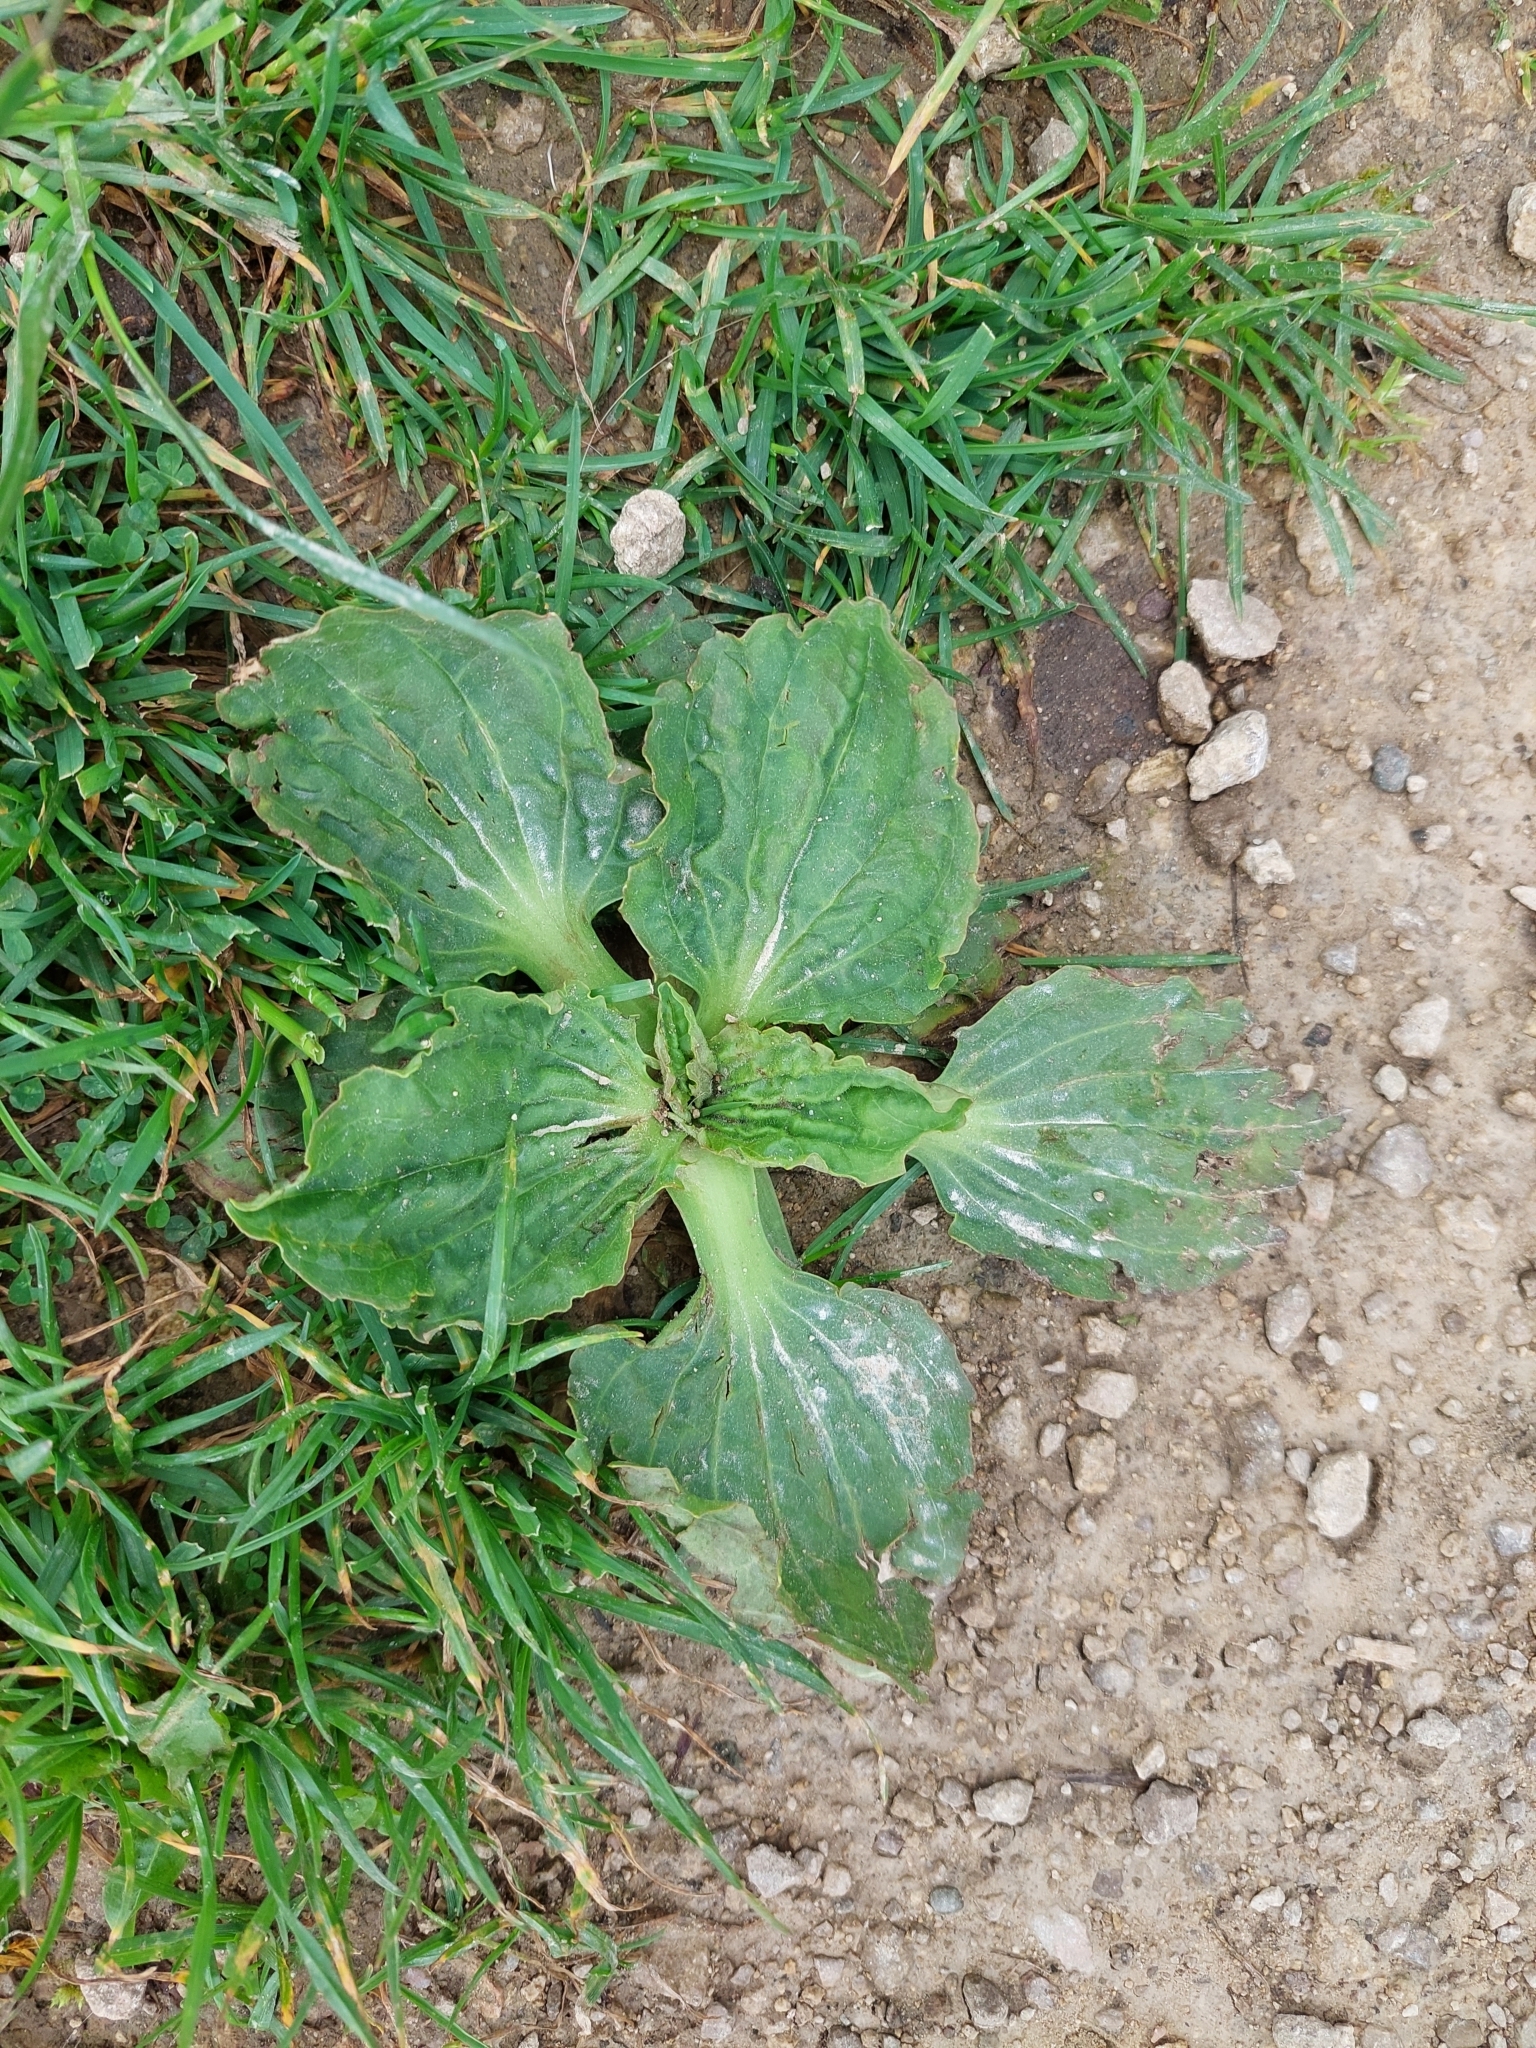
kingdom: Plantae
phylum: Tracheophyta
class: Magnoliopsida
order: Lamiales
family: Plantaginaceae
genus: Plantago
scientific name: Plantago major
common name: Common plantain
